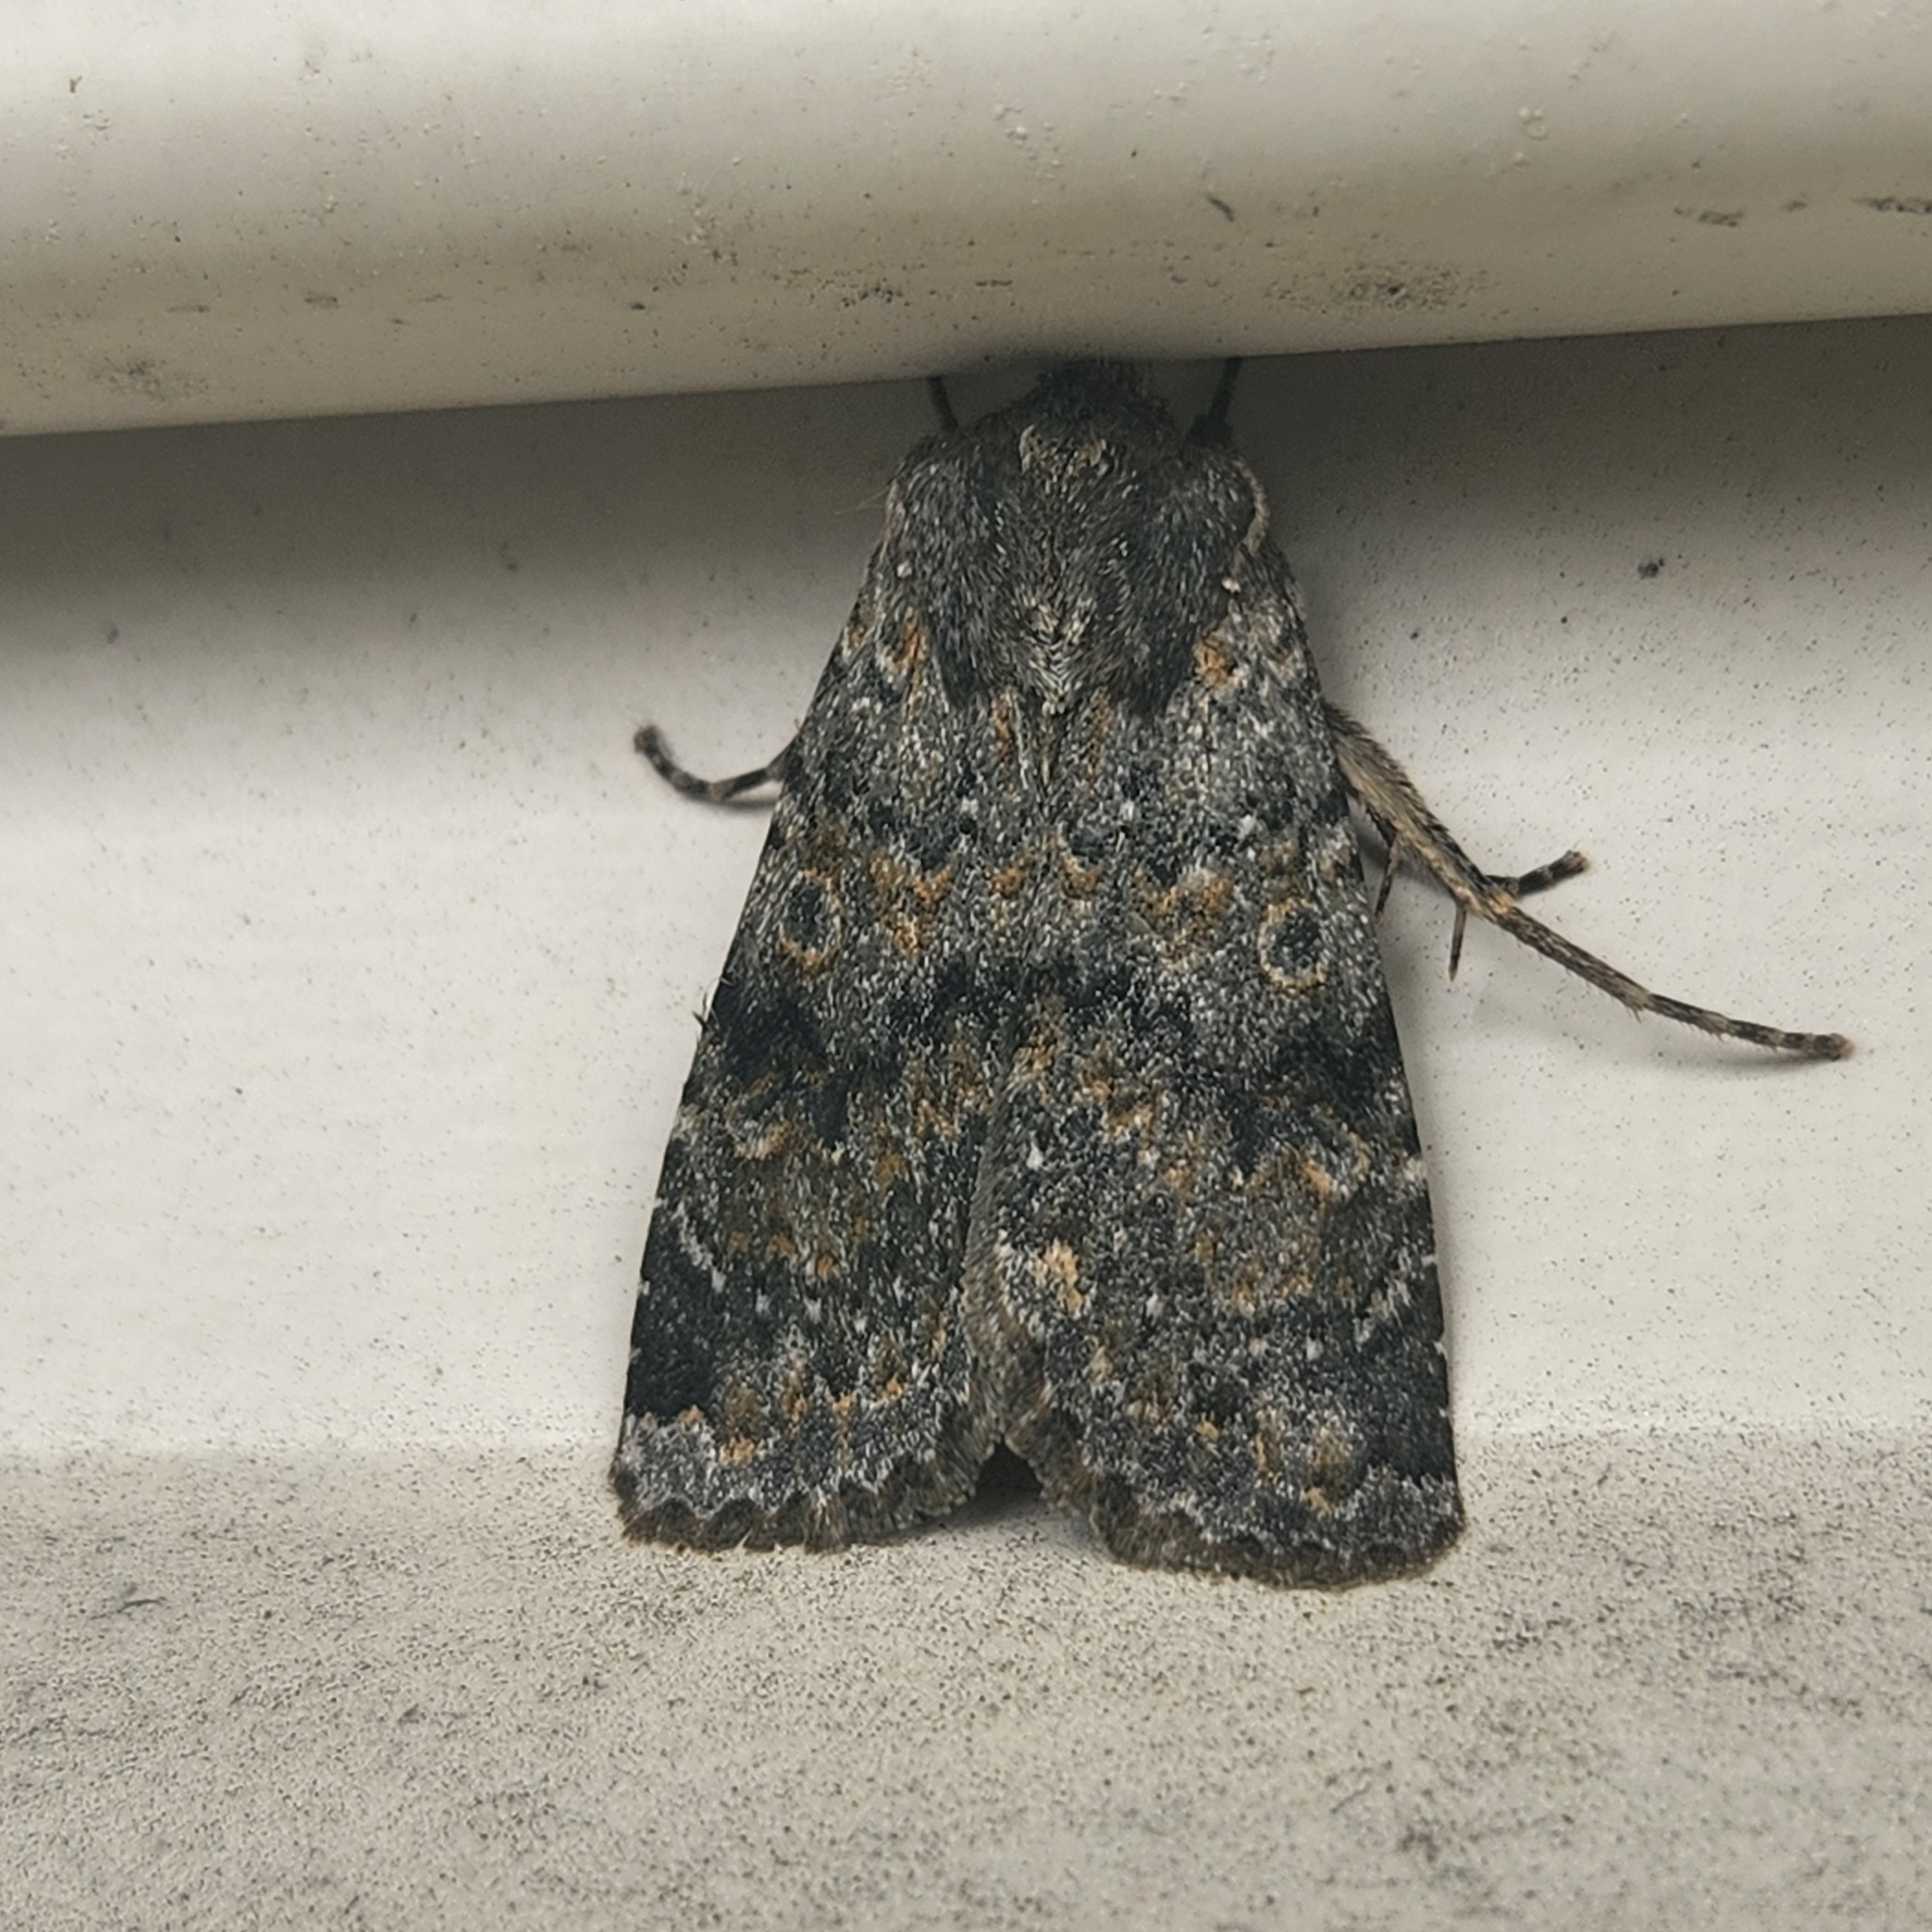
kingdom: Animalia
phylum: Arthropoda
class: Insecta
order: Lepidoptera
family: Noctuidae
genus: Ichneutica
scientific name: Ichneutica
